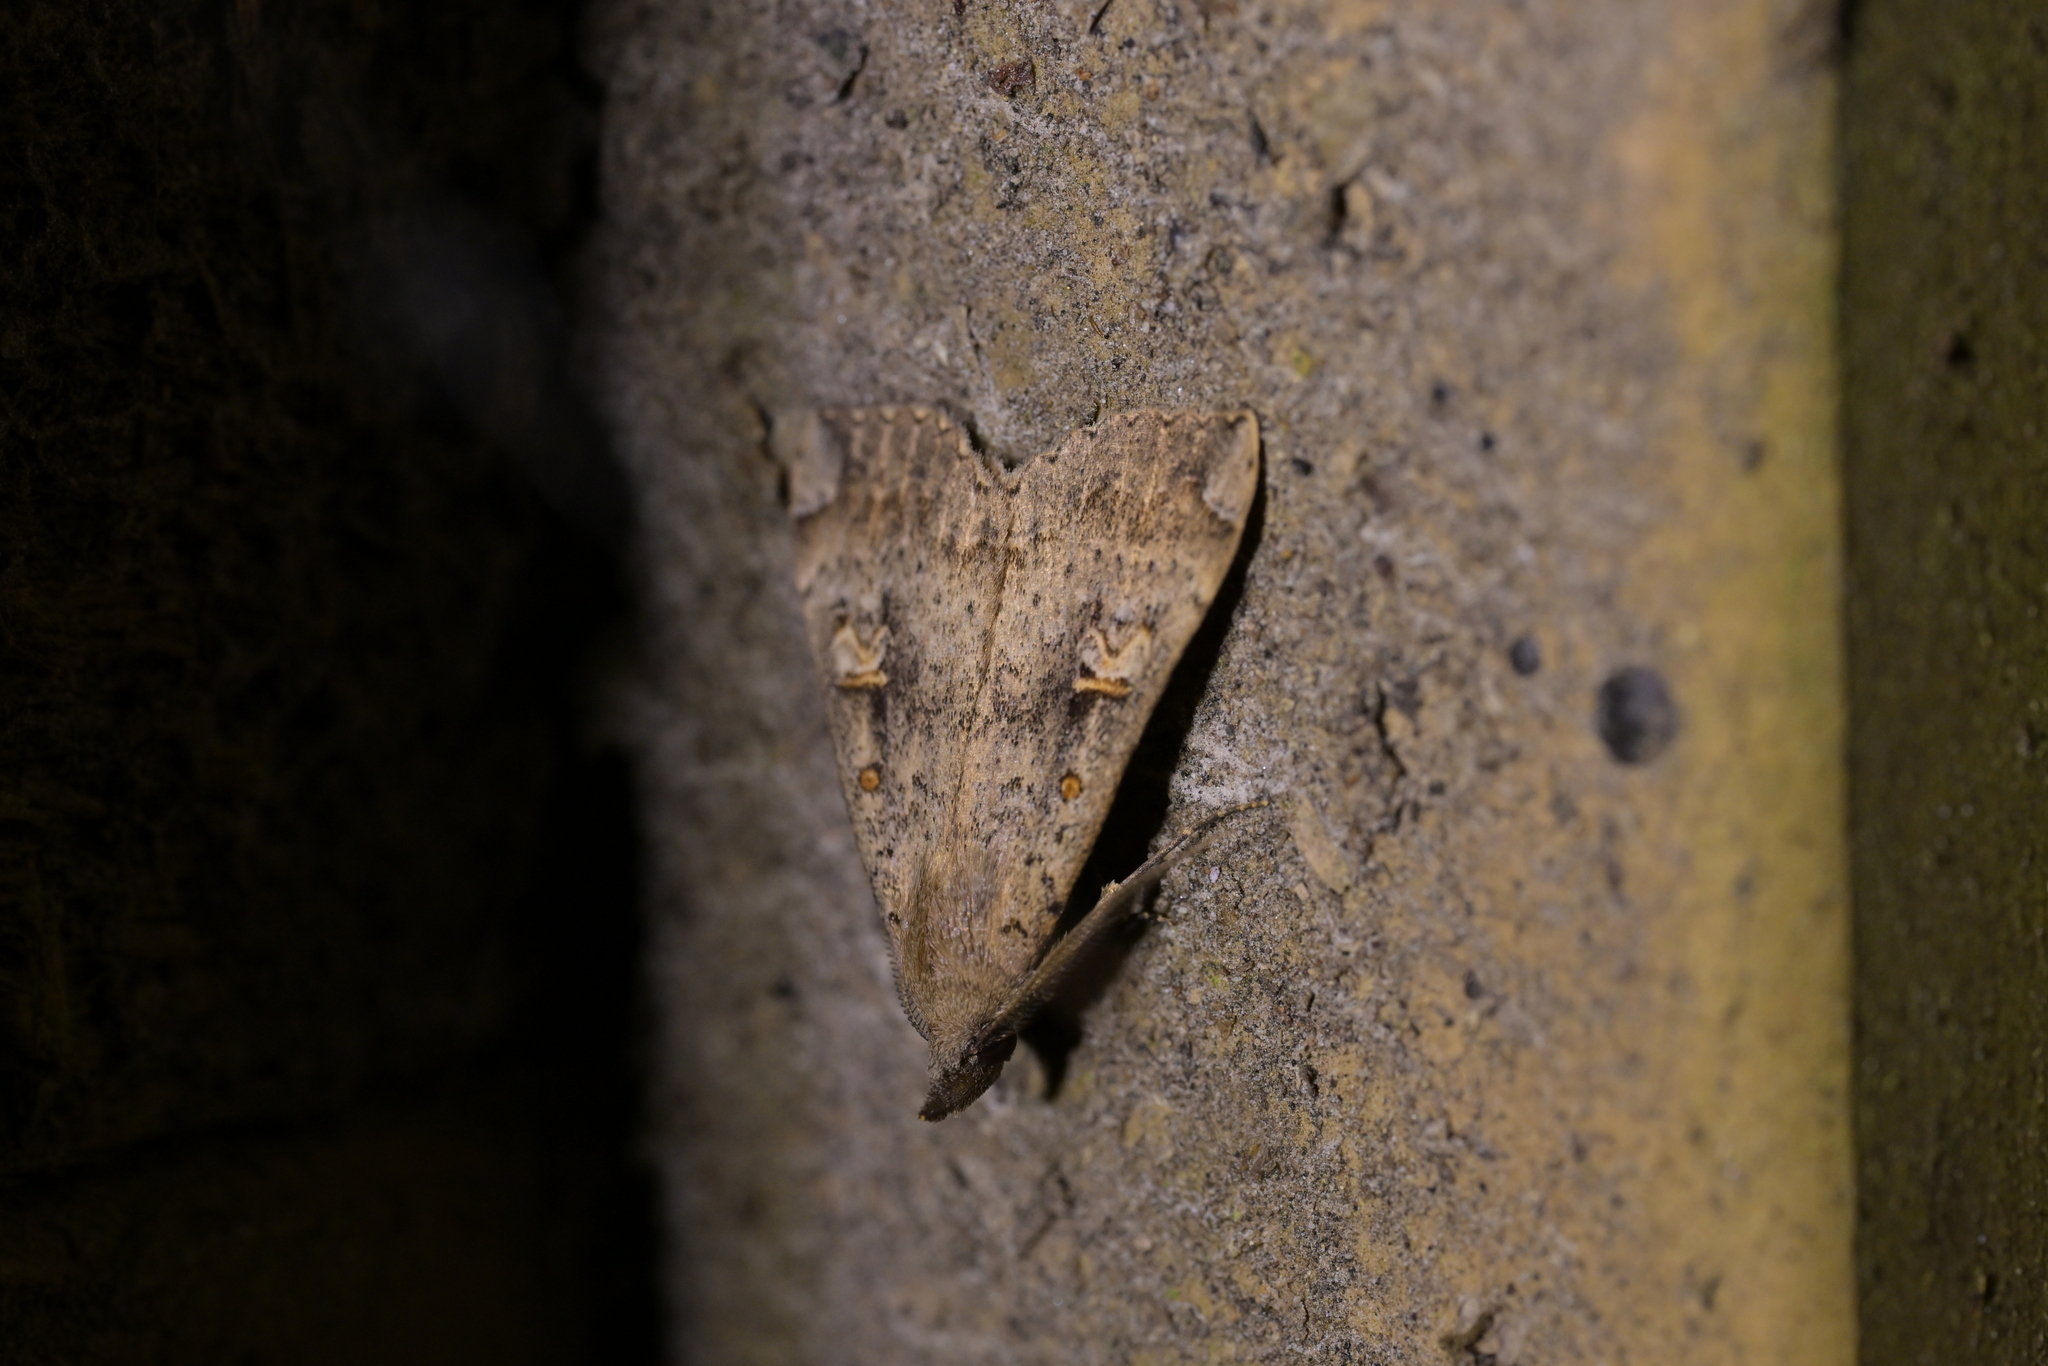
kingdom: Animalia
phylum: Arthropoda
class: Insecta
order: Lepidoptera
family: Erebidae
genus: Rhapsa
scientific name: Rhapsa scotosialis
